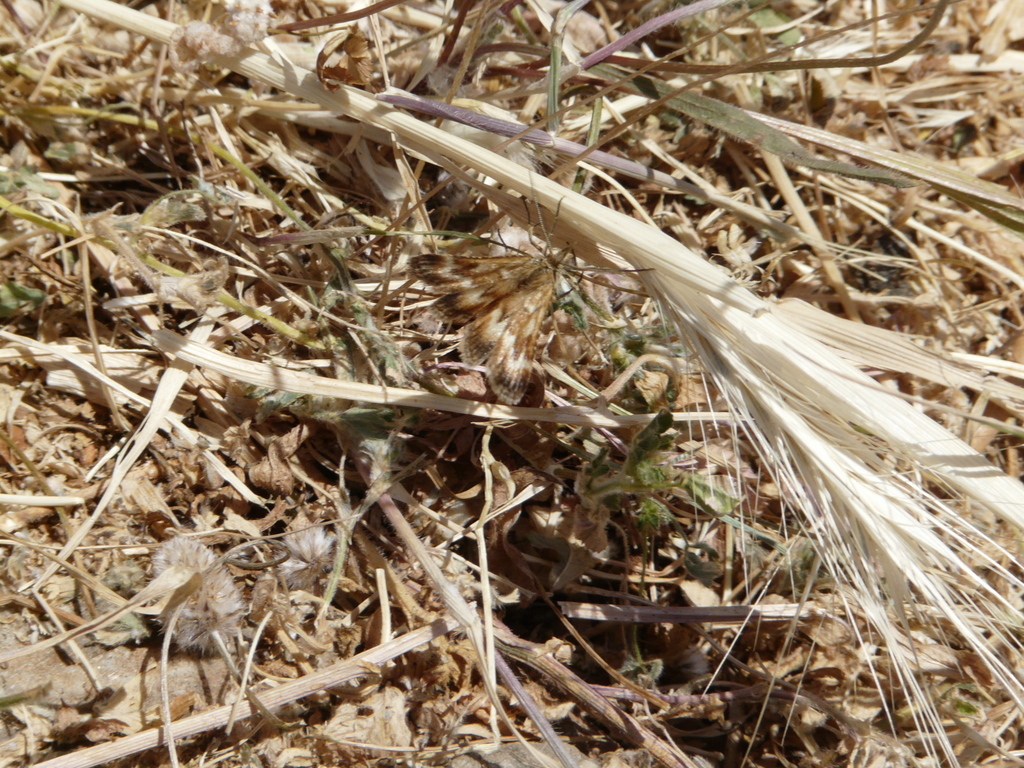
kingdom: Animalia
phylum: Arthropoda
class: Insecta
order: Lepidoptera
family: Pyralidae
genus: Synaphe
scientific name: Synaphe moldavica
